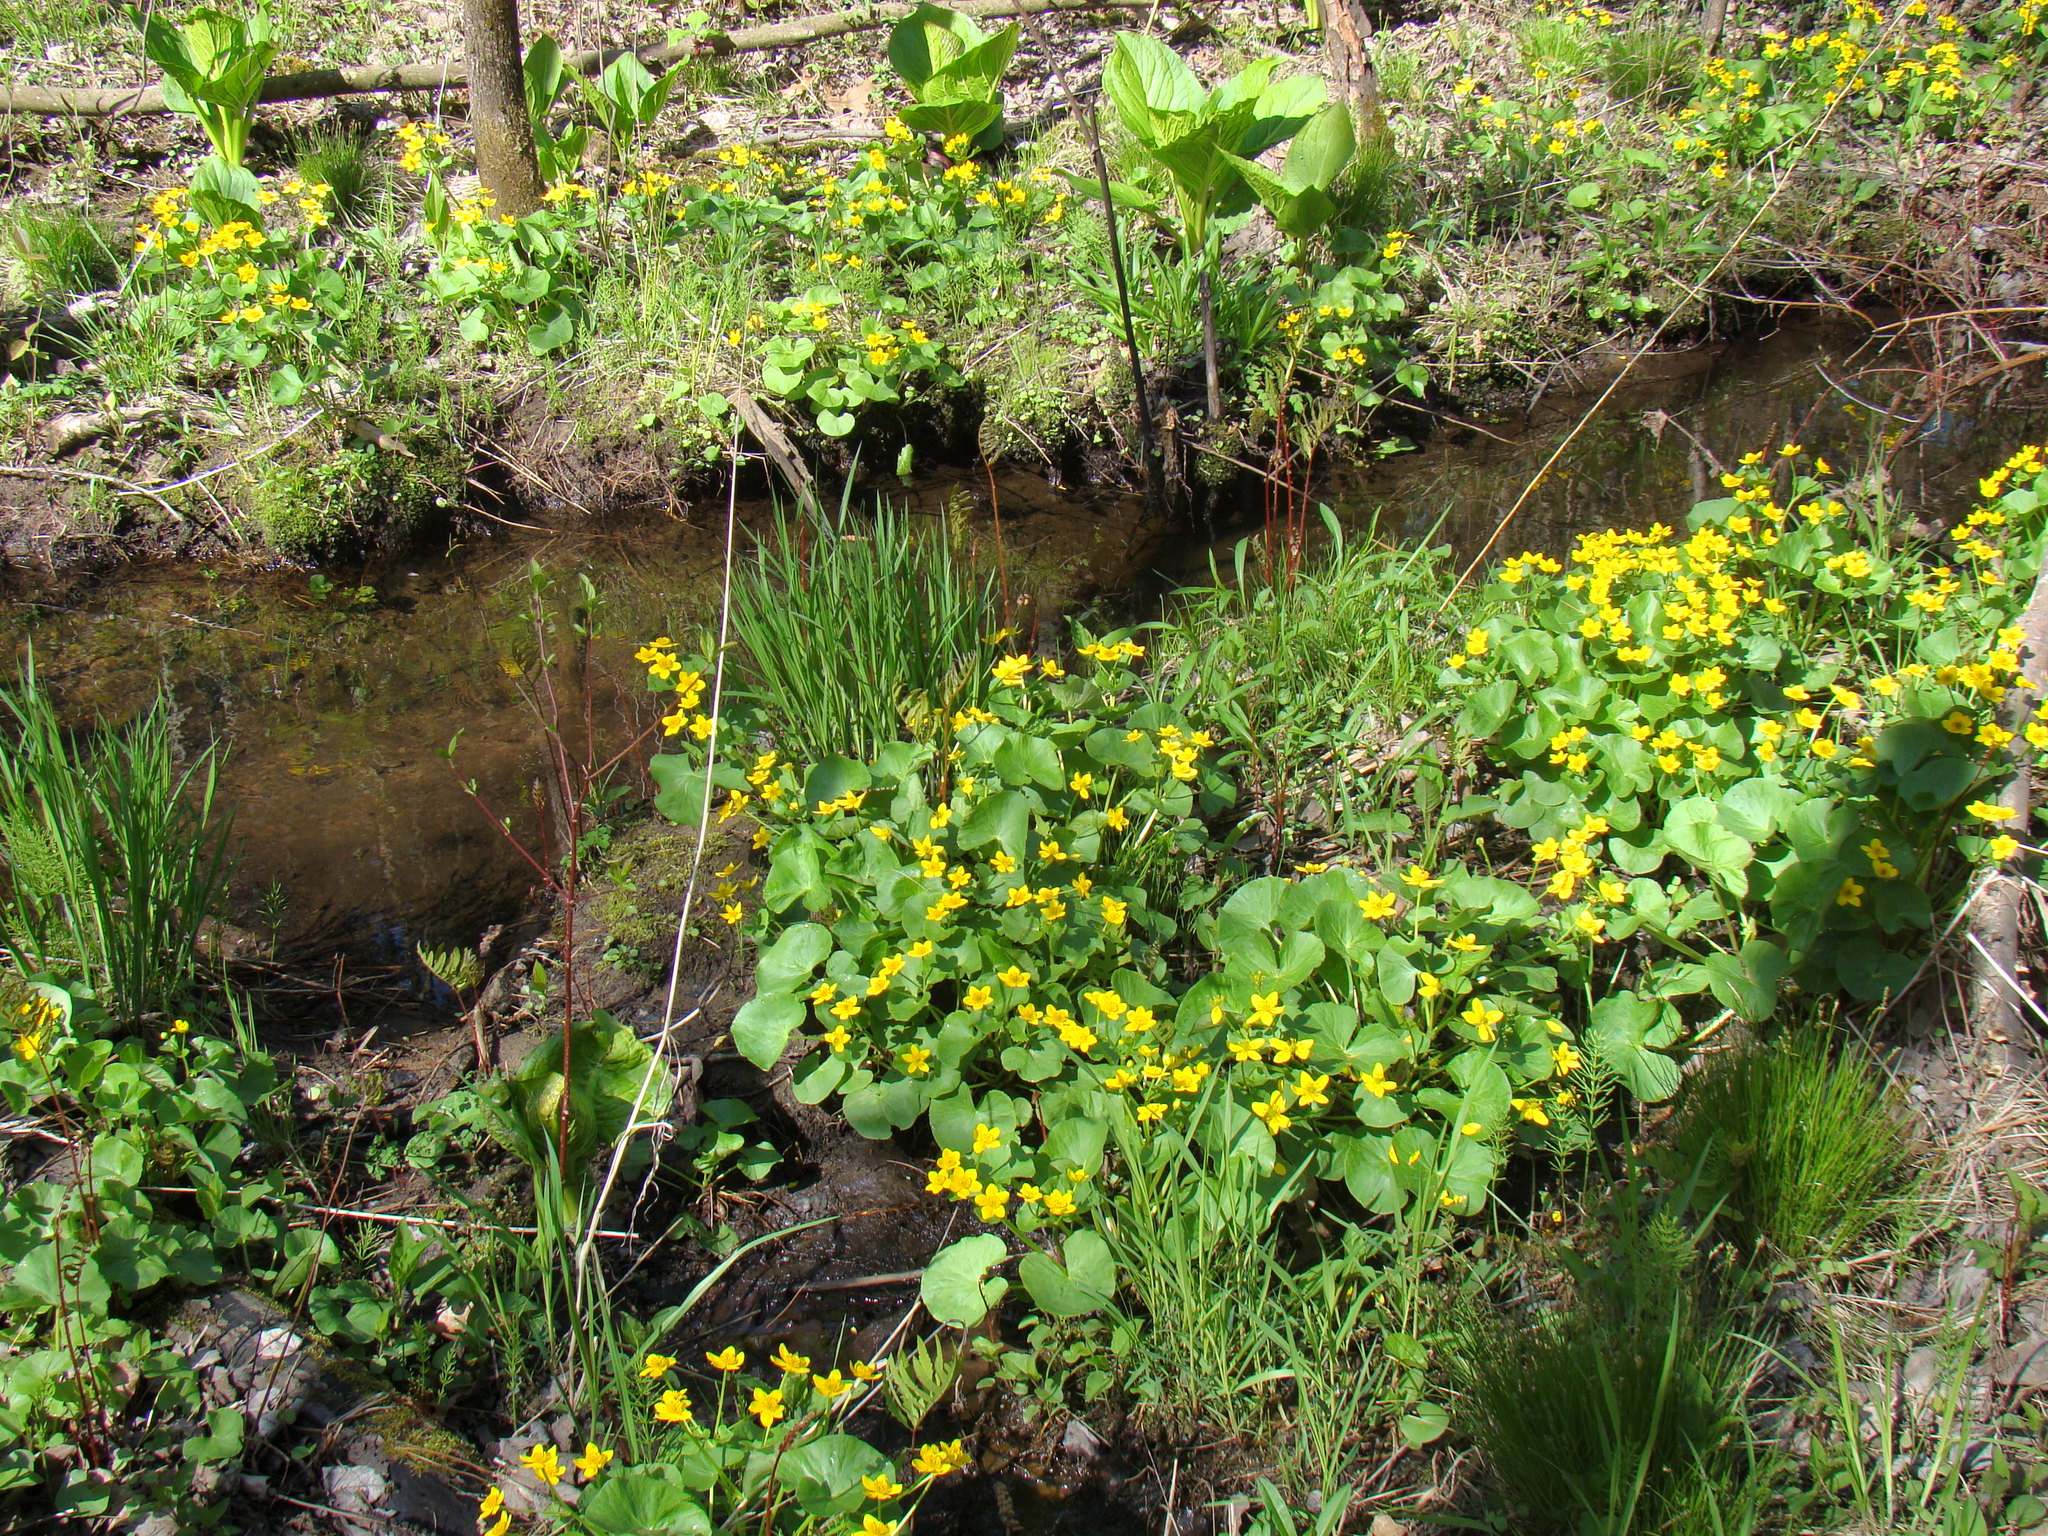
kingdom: Plantae
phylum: Tracheophyta
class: Magnoliopsida
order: Ranunculales
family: Ranunculaceae
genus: Caltha
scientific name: Caltha palustris
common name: Marsh marigold
